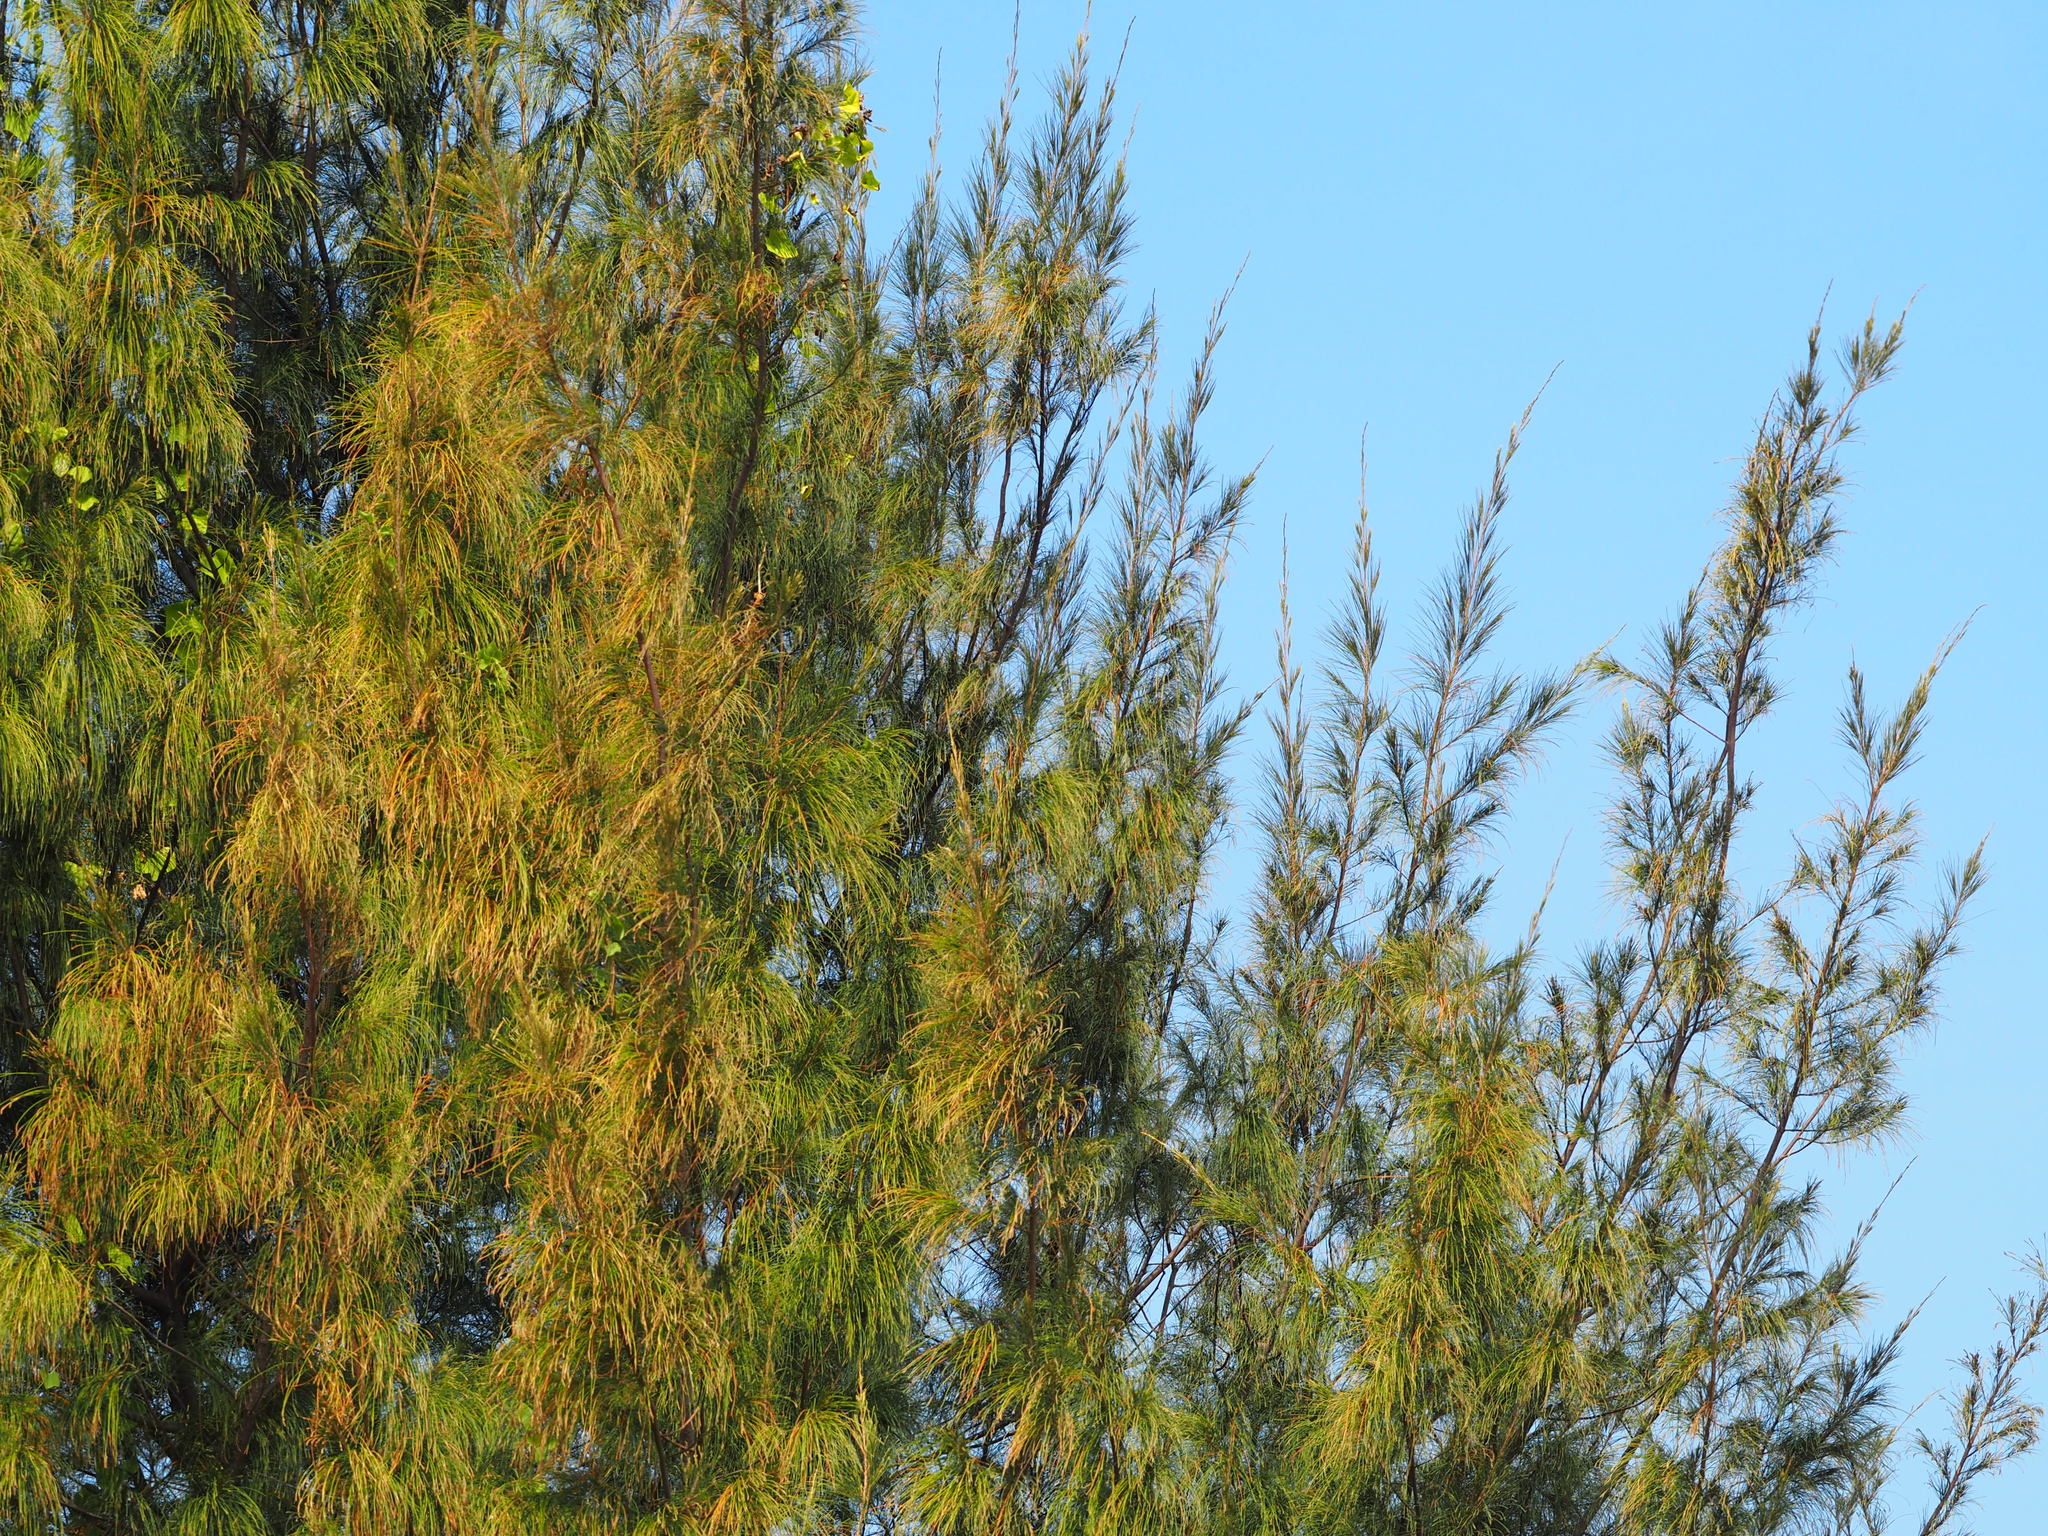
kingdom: Plantae
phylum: Tracheophyta
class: Magnoliopsida
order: Fagales
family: Casuarinaceae
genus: Casuarina
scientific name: Casuarina equisetifolia
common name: Beach sheoak
